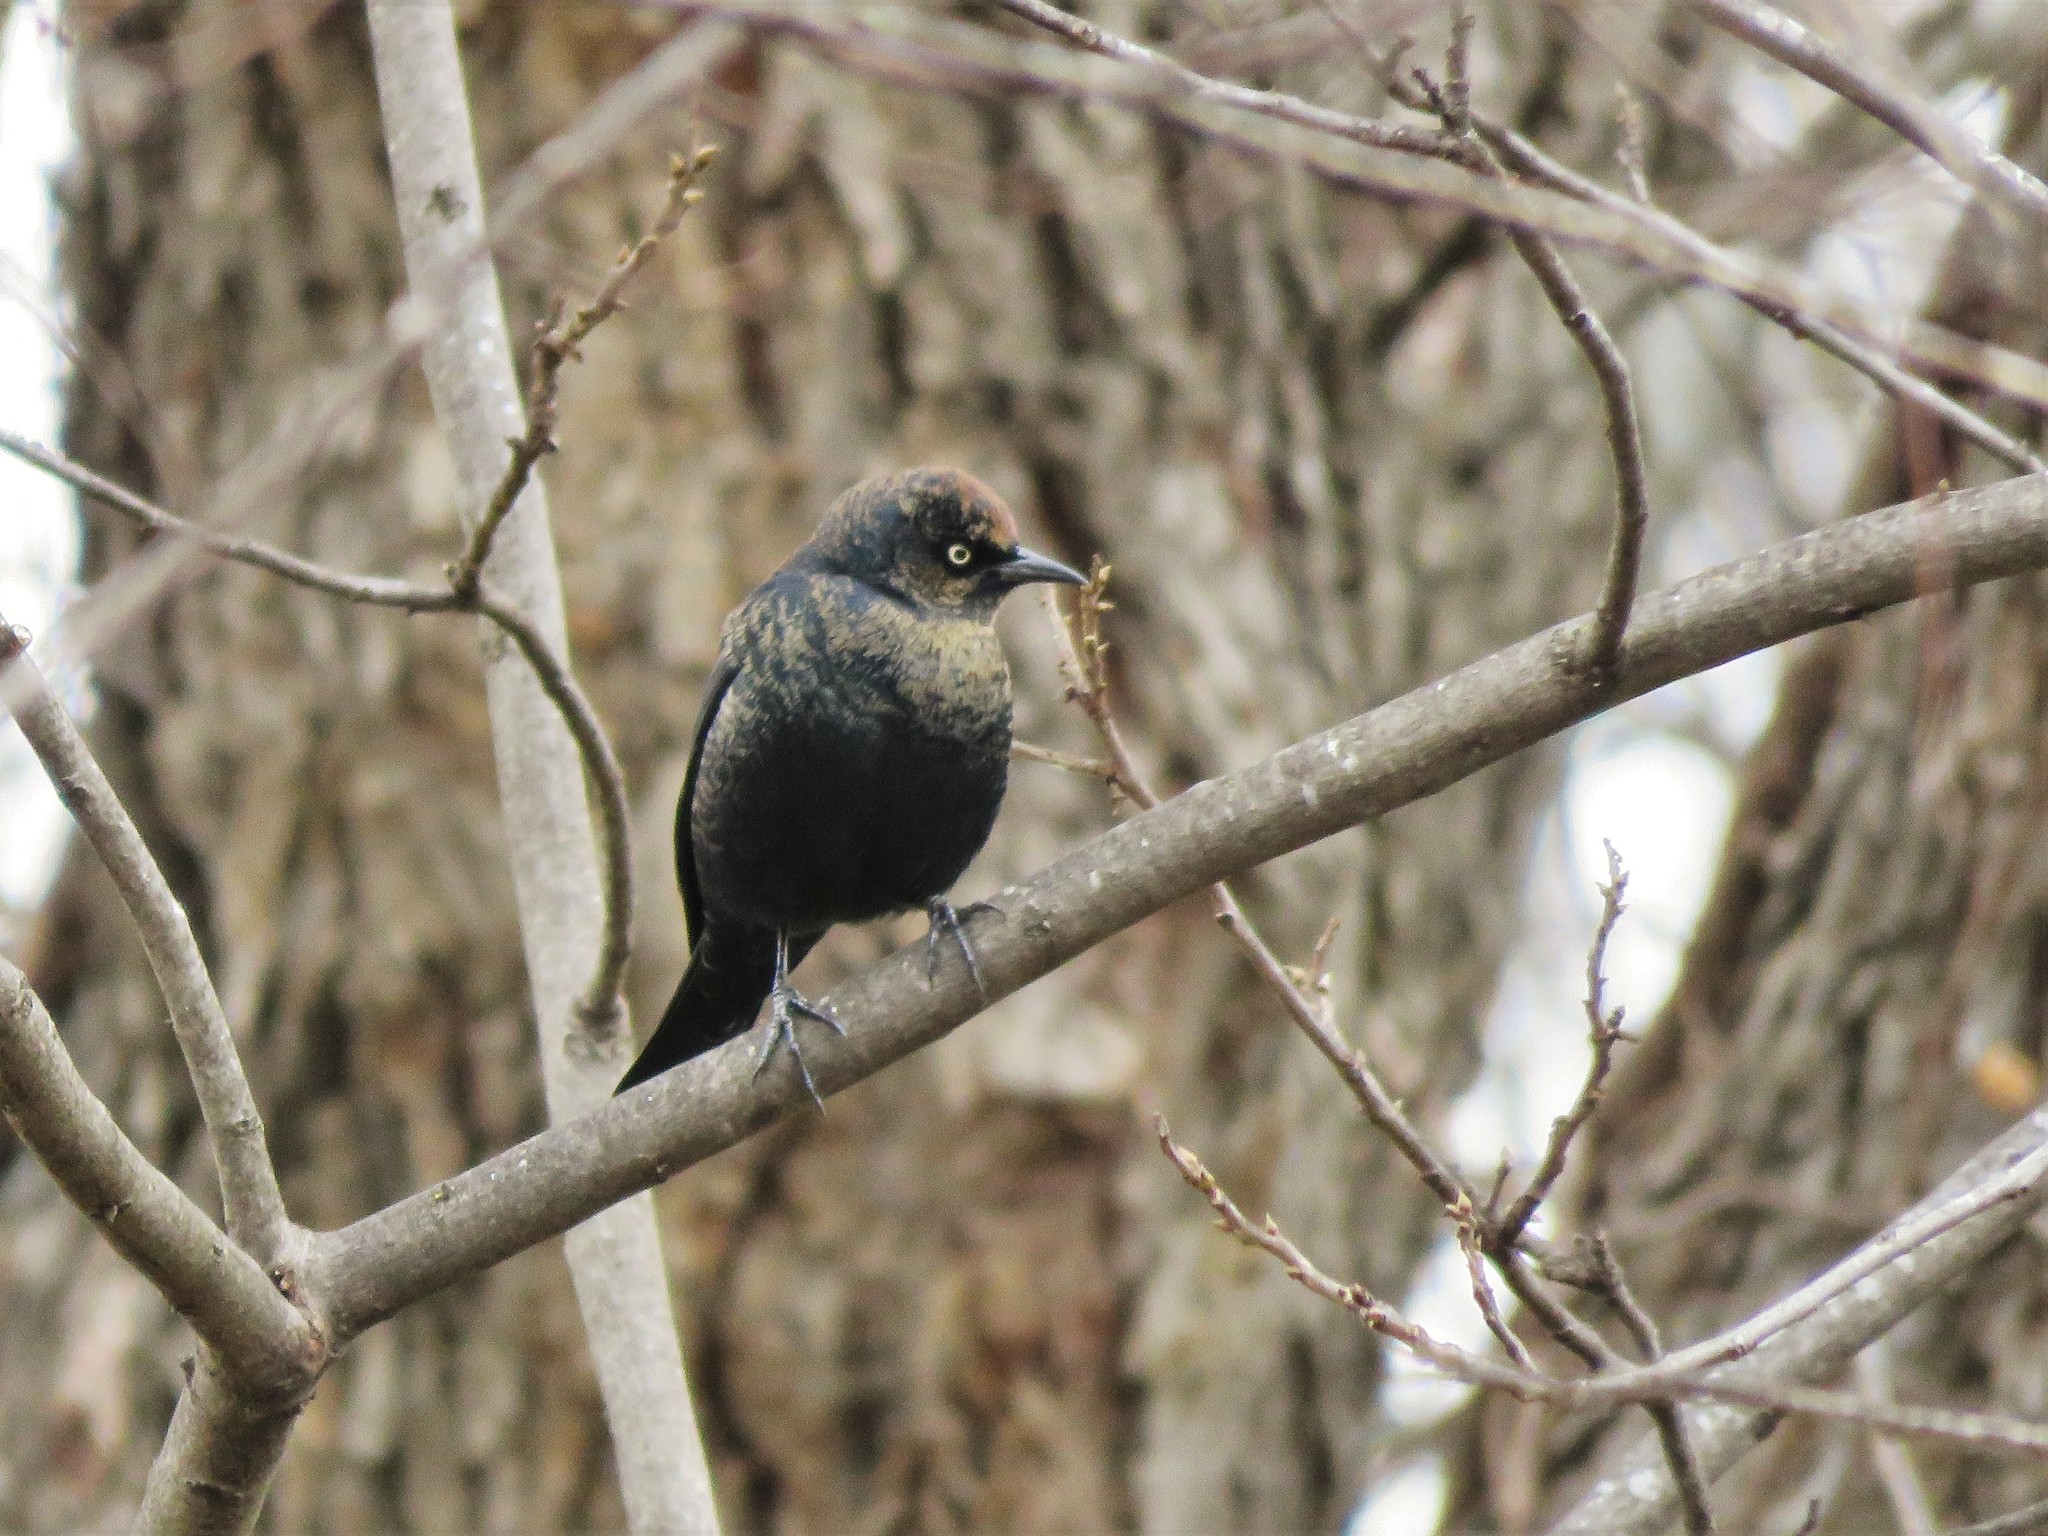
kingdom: Animalia
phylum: Chordata
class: Aves
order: Passeriformes
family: Icteridae
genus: Euphagus
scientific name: Euphagus carolinus
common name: Rusty blackbird
